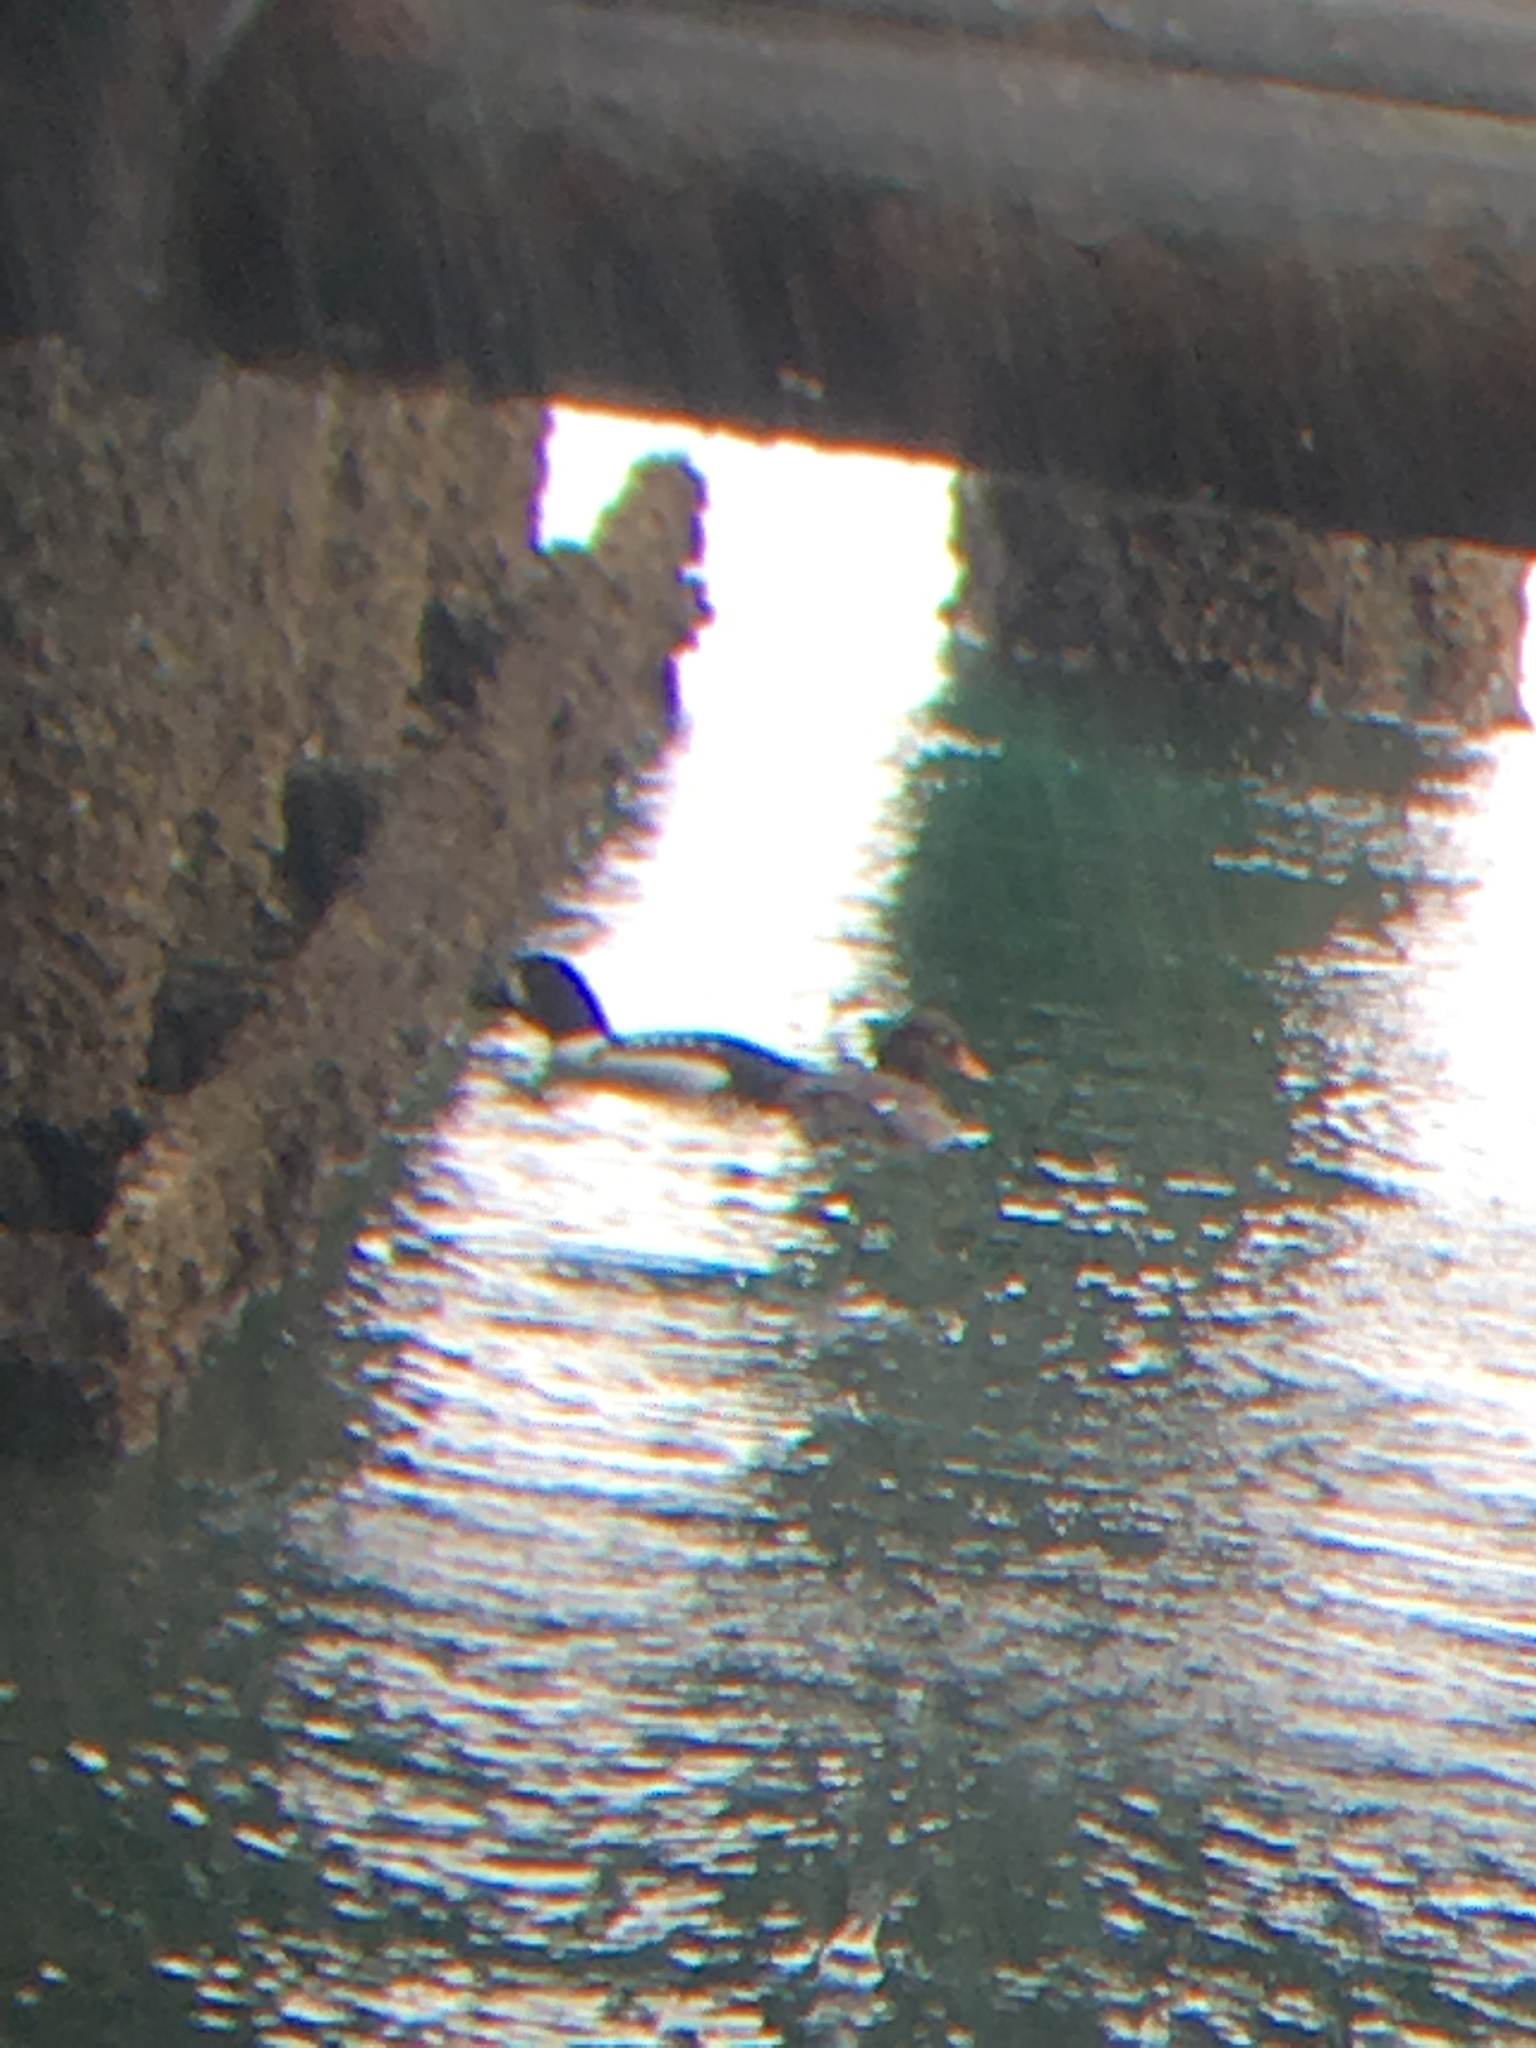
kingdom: Animalia
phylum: Chordata
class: Aves
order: Anseriformes
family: Anatidae
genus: Bucephala
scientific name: Bucephala islandica
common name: Barrow's goldeneye
